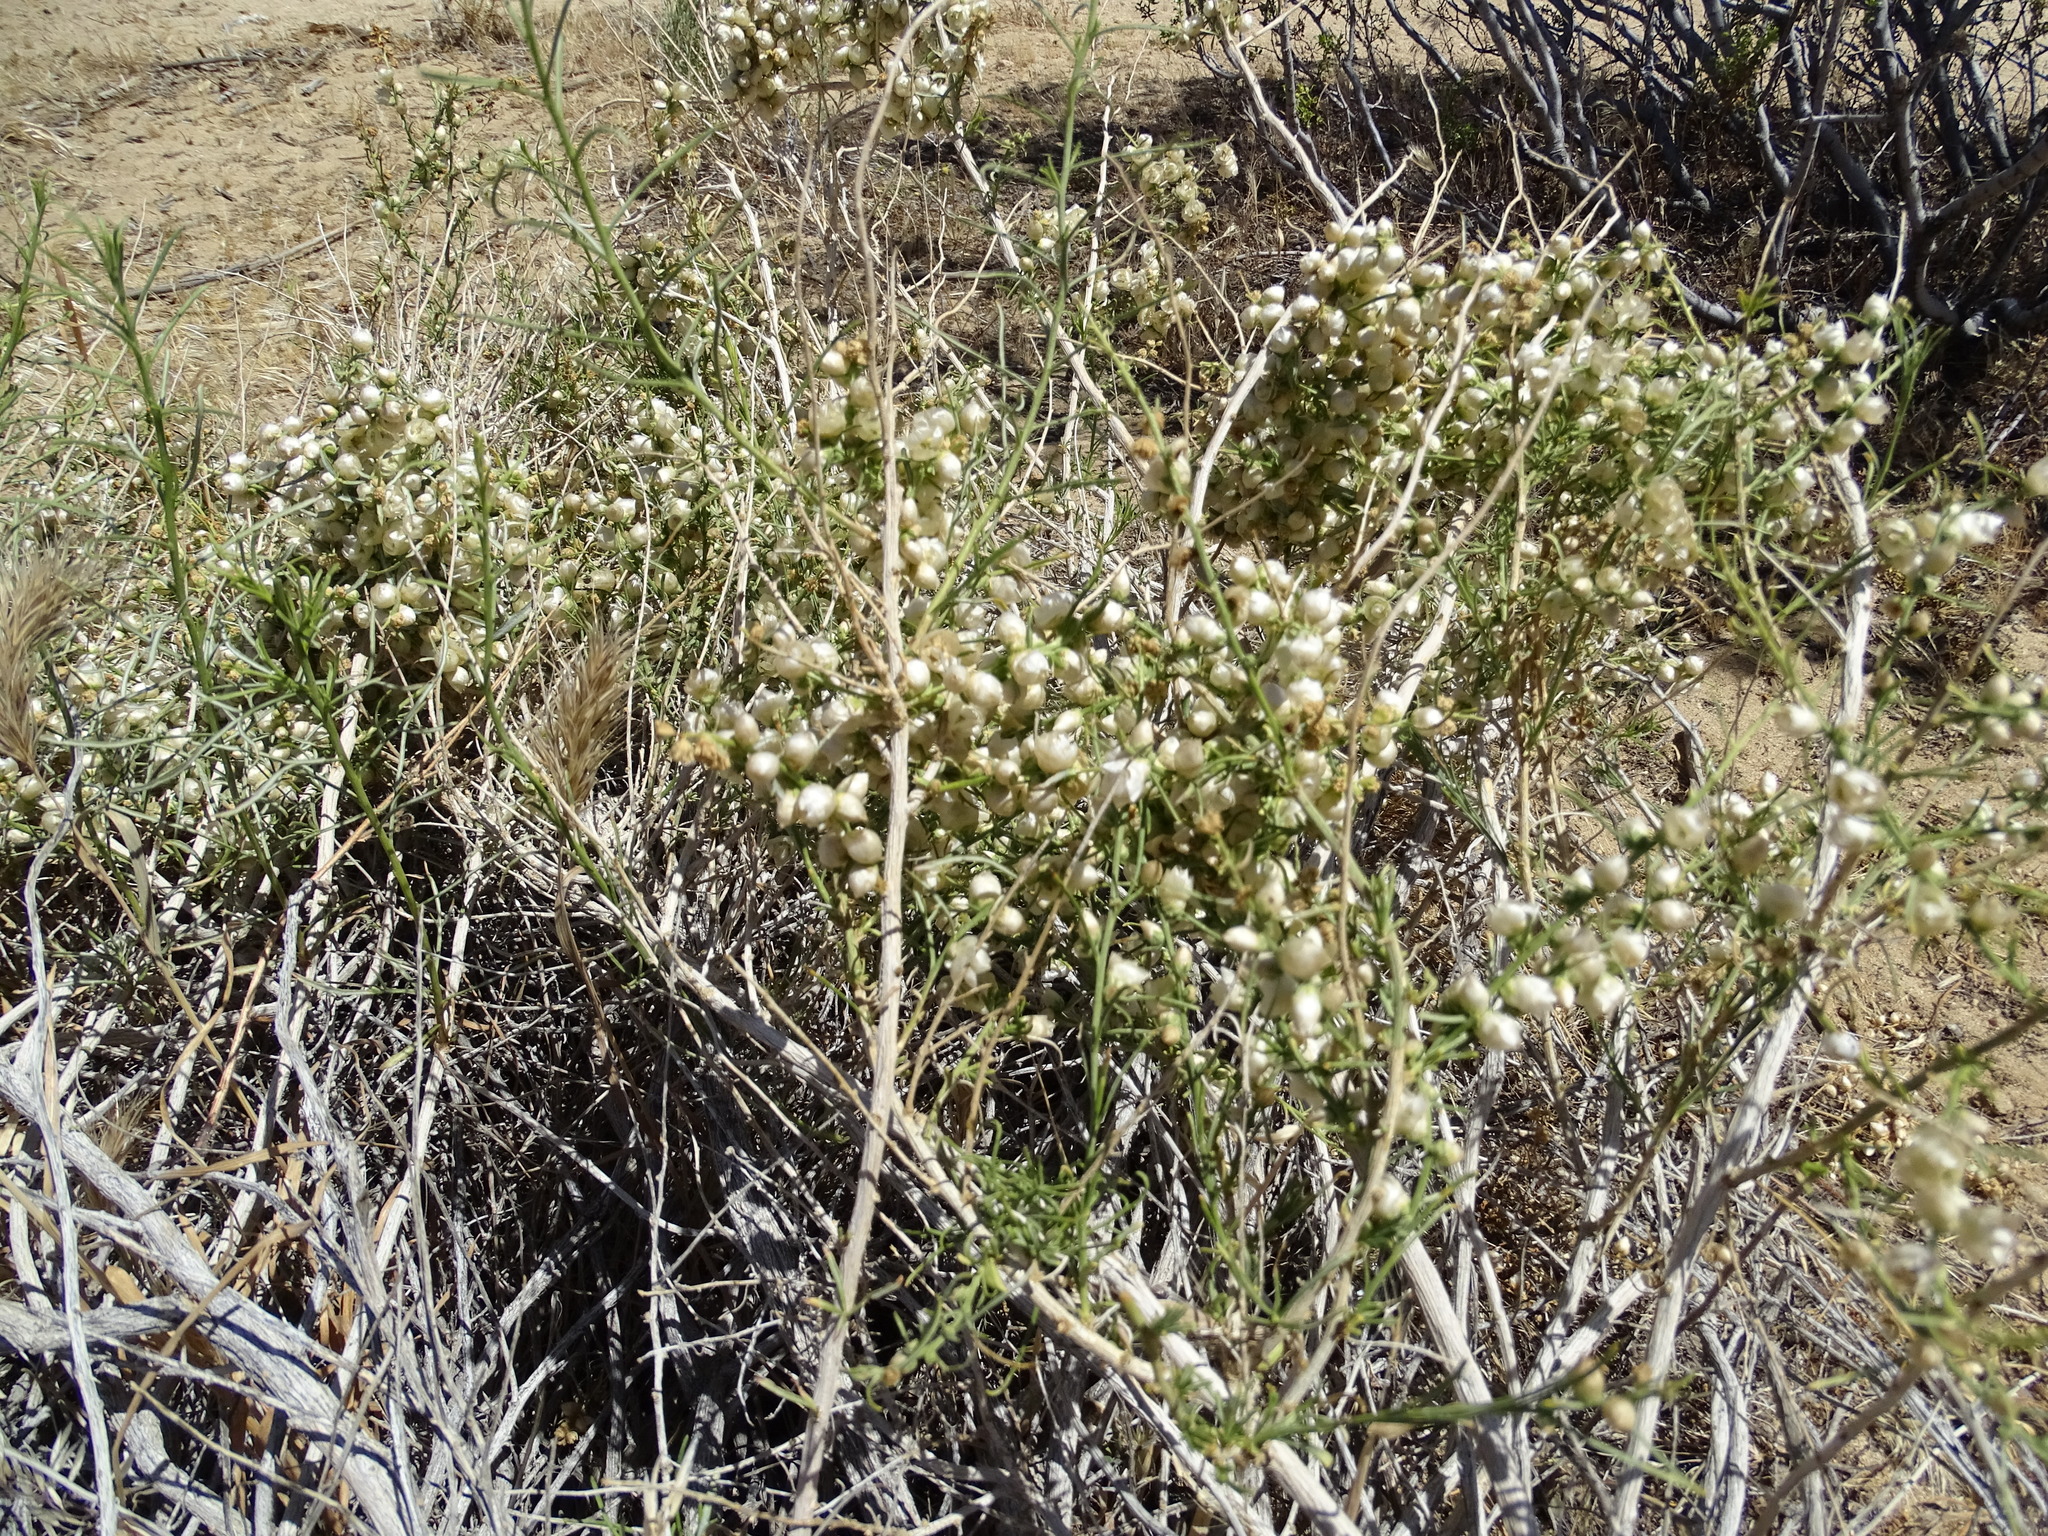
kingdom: Plantae
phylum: Tracheophyta
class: Magnoliopsida
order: Asterales
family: Asteraceae
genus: Ambrosia
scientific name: Ambrosia salsola
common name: Burrobrush
